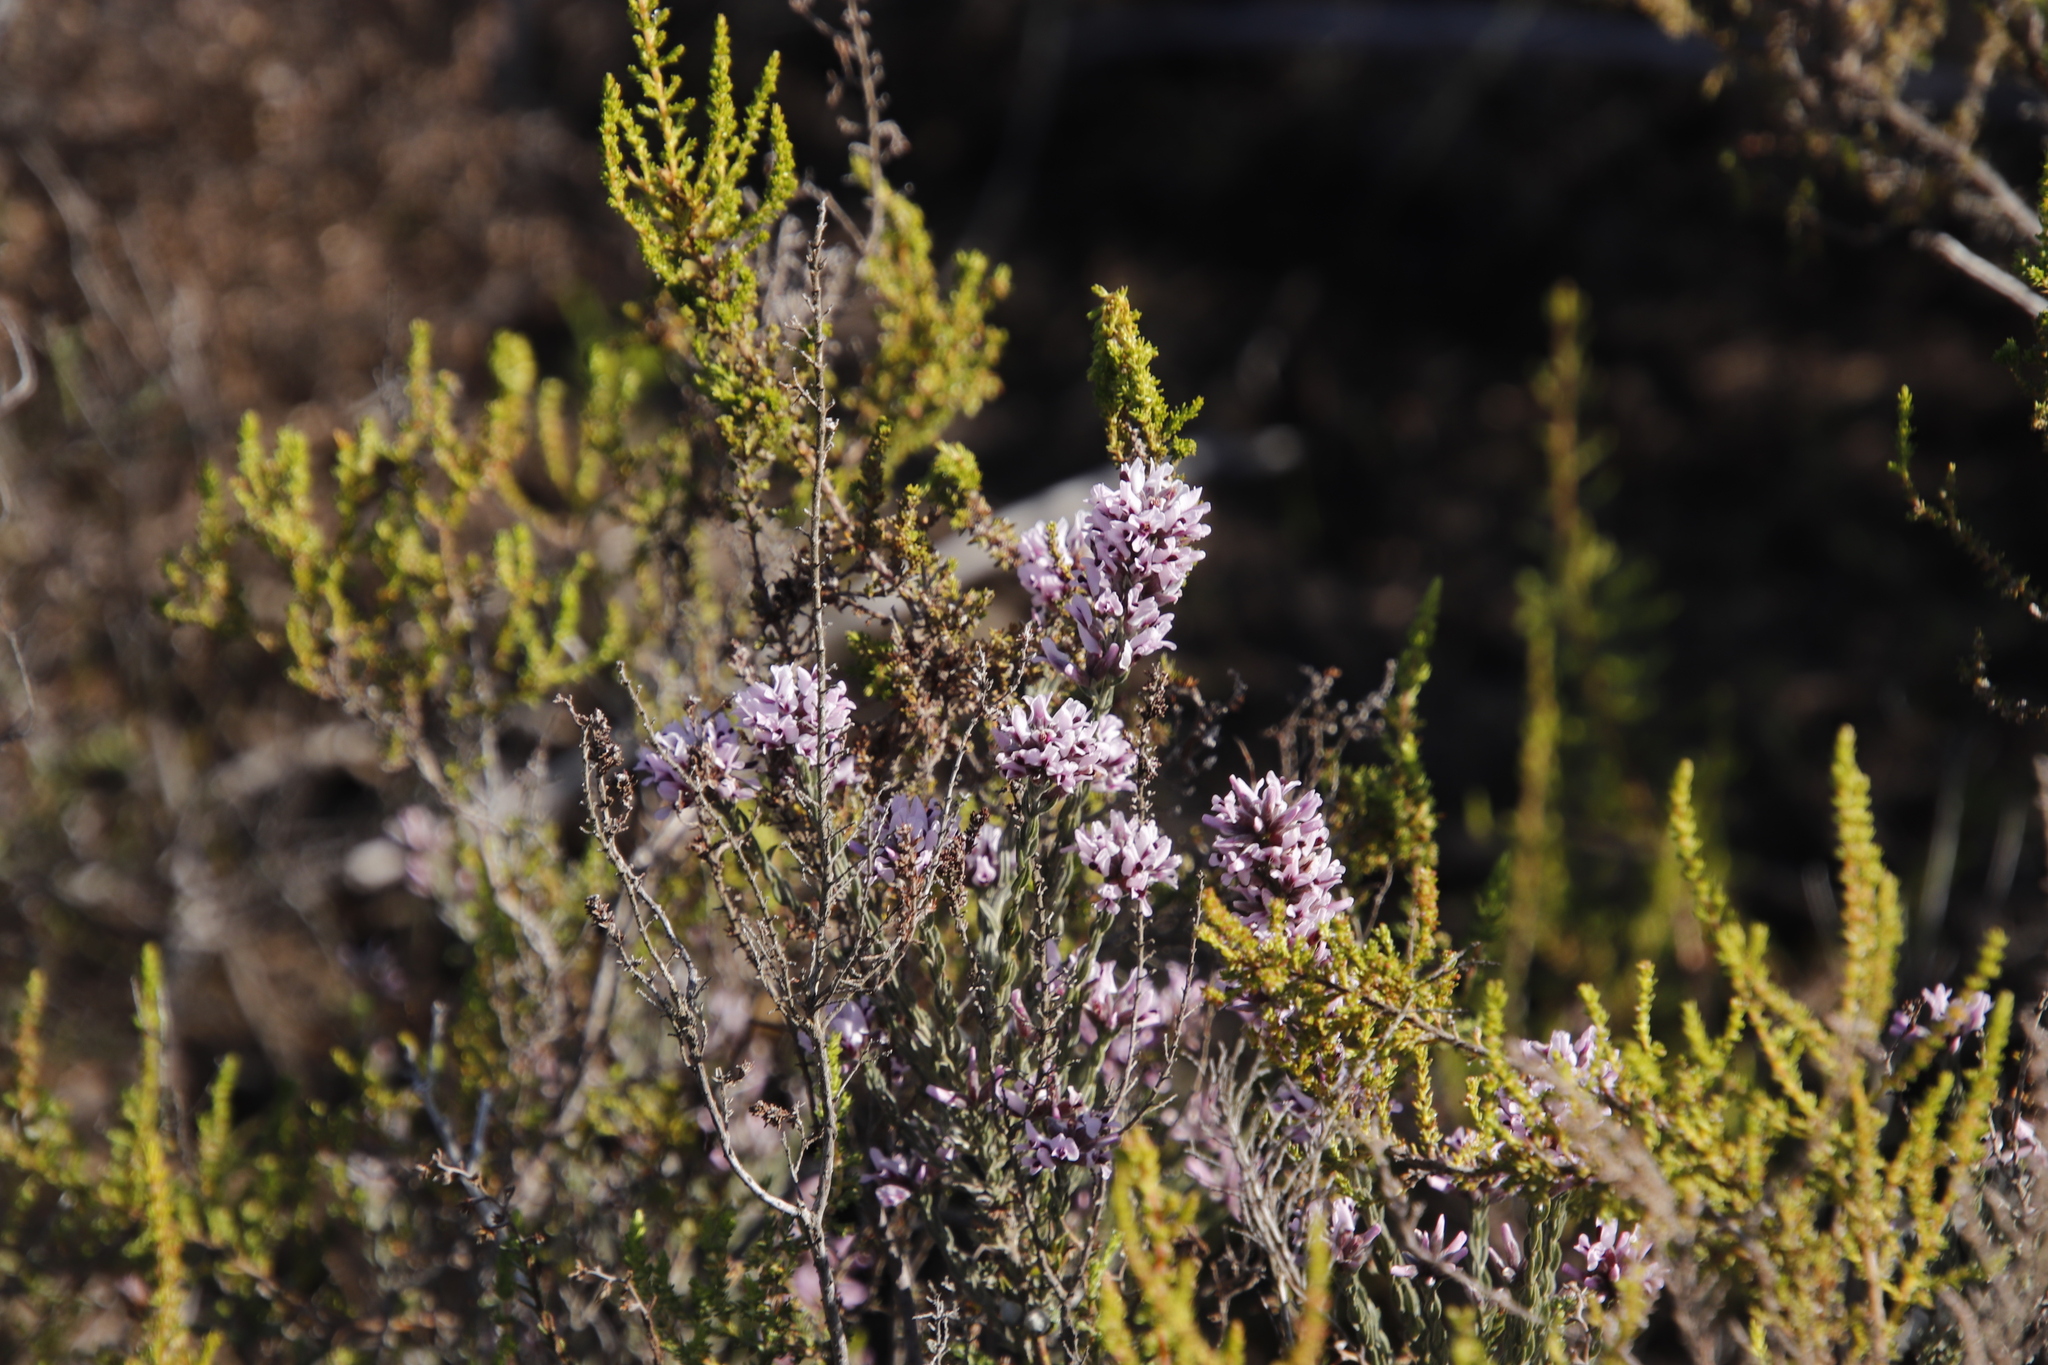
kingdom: Plantae
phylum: Tracheophyta
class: Magnoliopsida
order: Fabales
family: Fabaceae
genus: Amphithalea
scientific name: Amphithalea ericifolia
